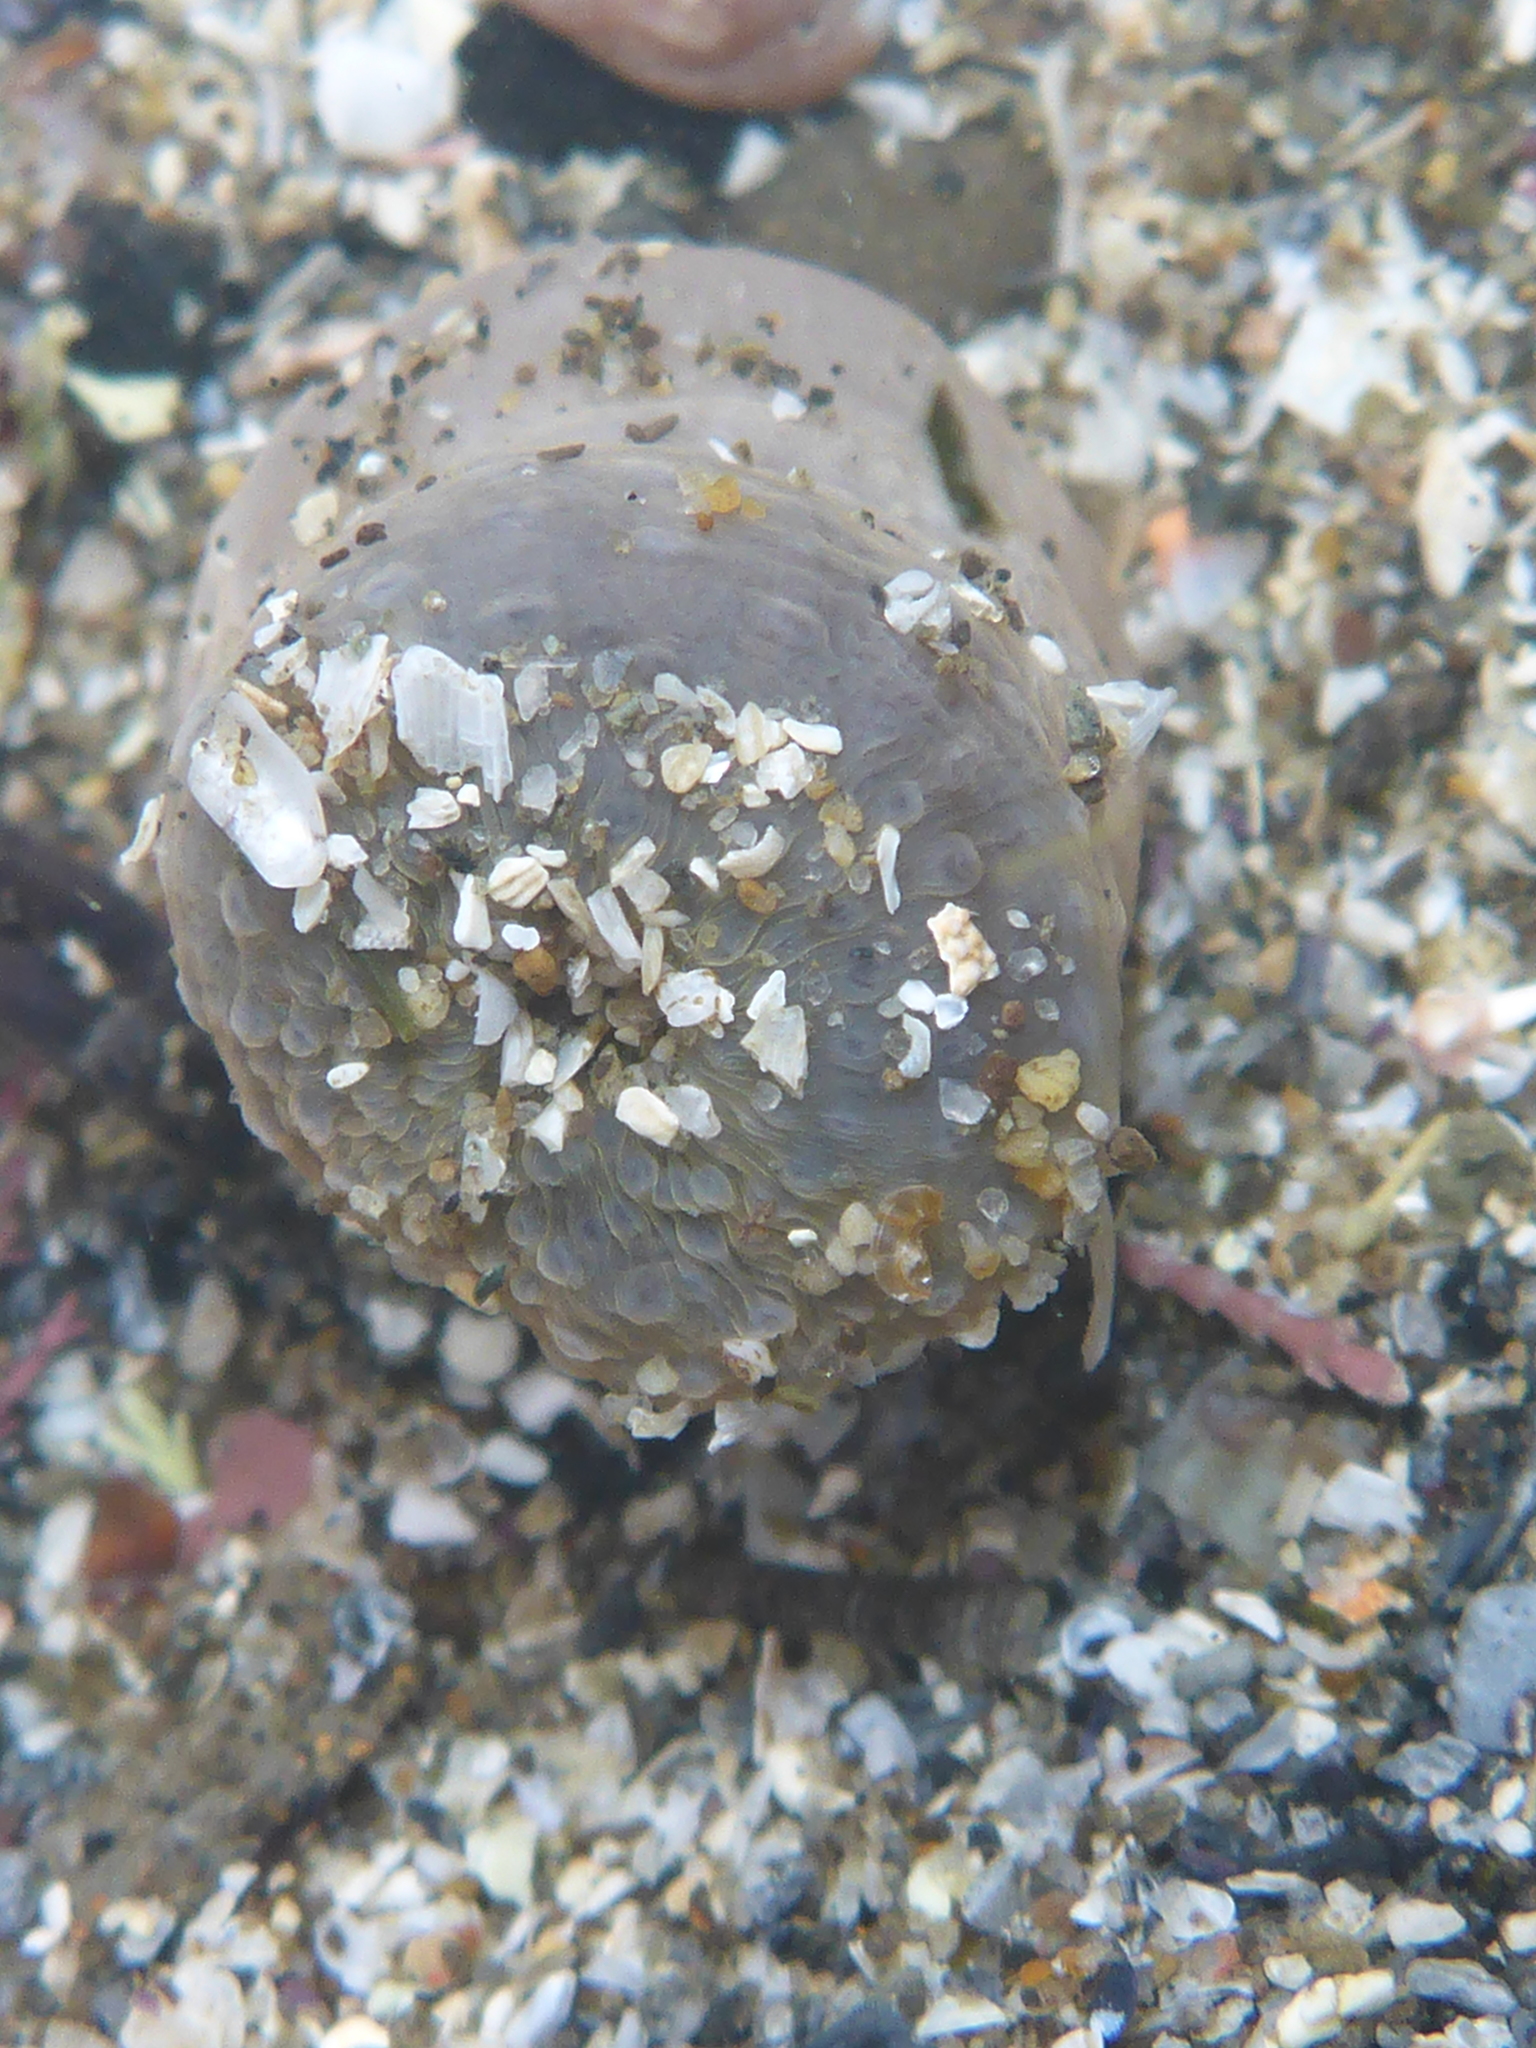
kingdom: Animalia
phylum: Cnidaria
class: Anthozoa
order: Actiniaria
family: Actiniidae
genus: Anthopleura
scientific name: Anthopleura elegantissima
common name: Clonal anemone
